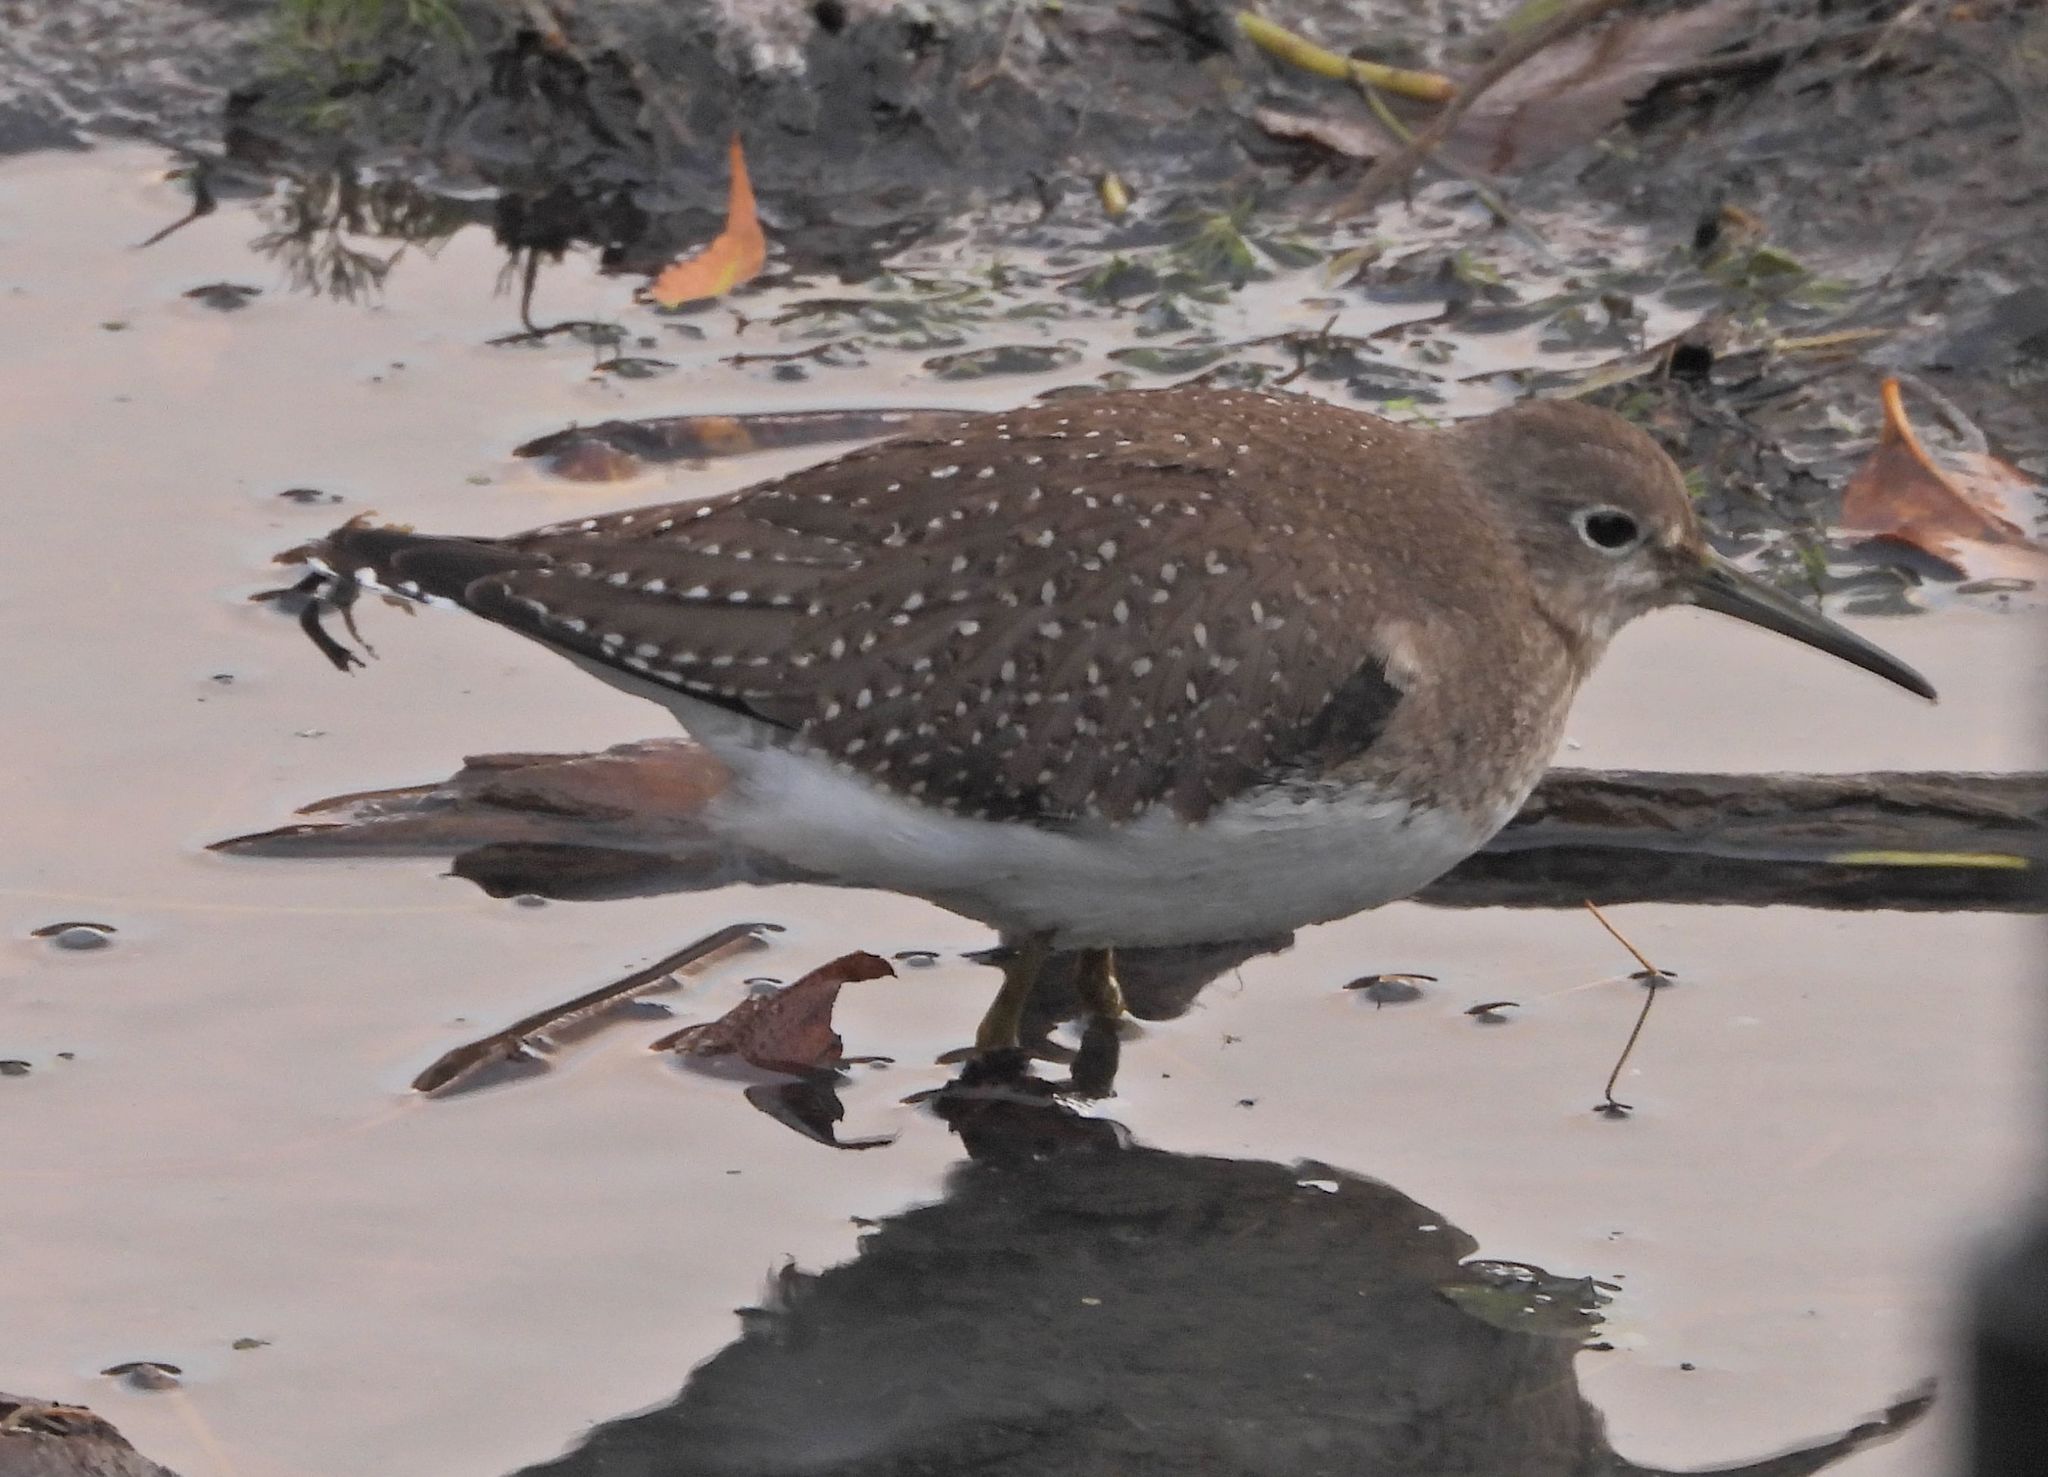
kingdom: Animalia
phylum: Chordata
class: Aves
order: Charadriiformes
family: Scolopacidae
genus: Tringa
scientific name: Tringa solitaria
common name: Solitary sandpiper
